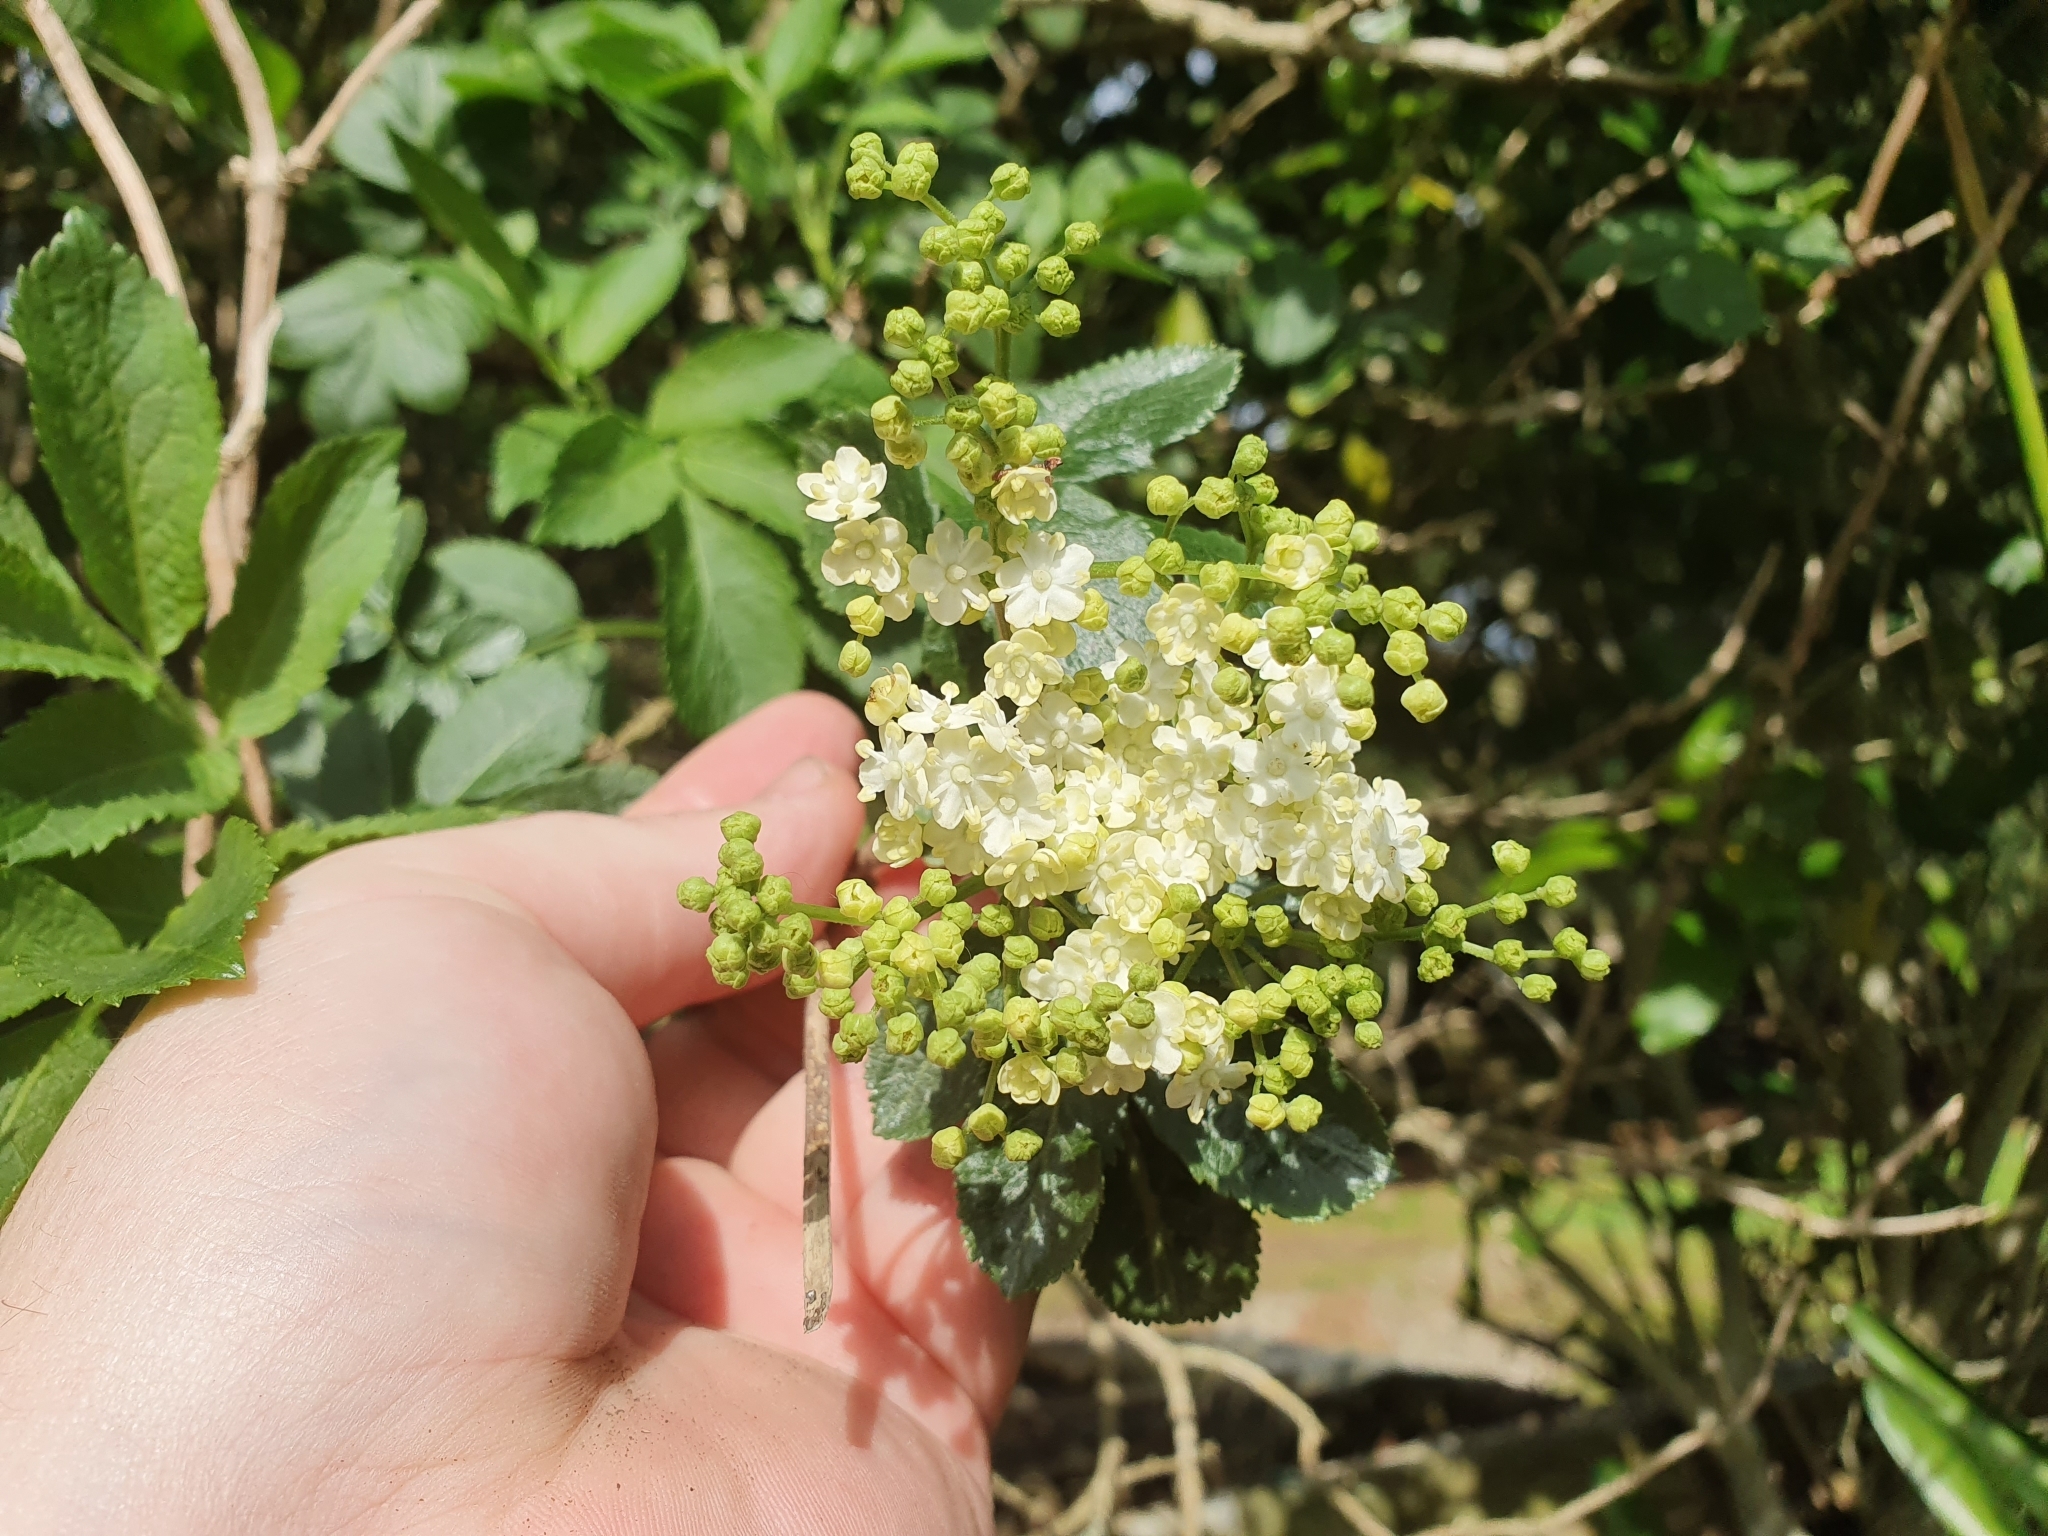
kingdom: Plantae
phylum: Tracheophyta
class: Magnoliopsida
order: Dipsacales
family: Viburnaceae
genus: Sambucus
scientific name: Sambucus nigra
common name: Elder
